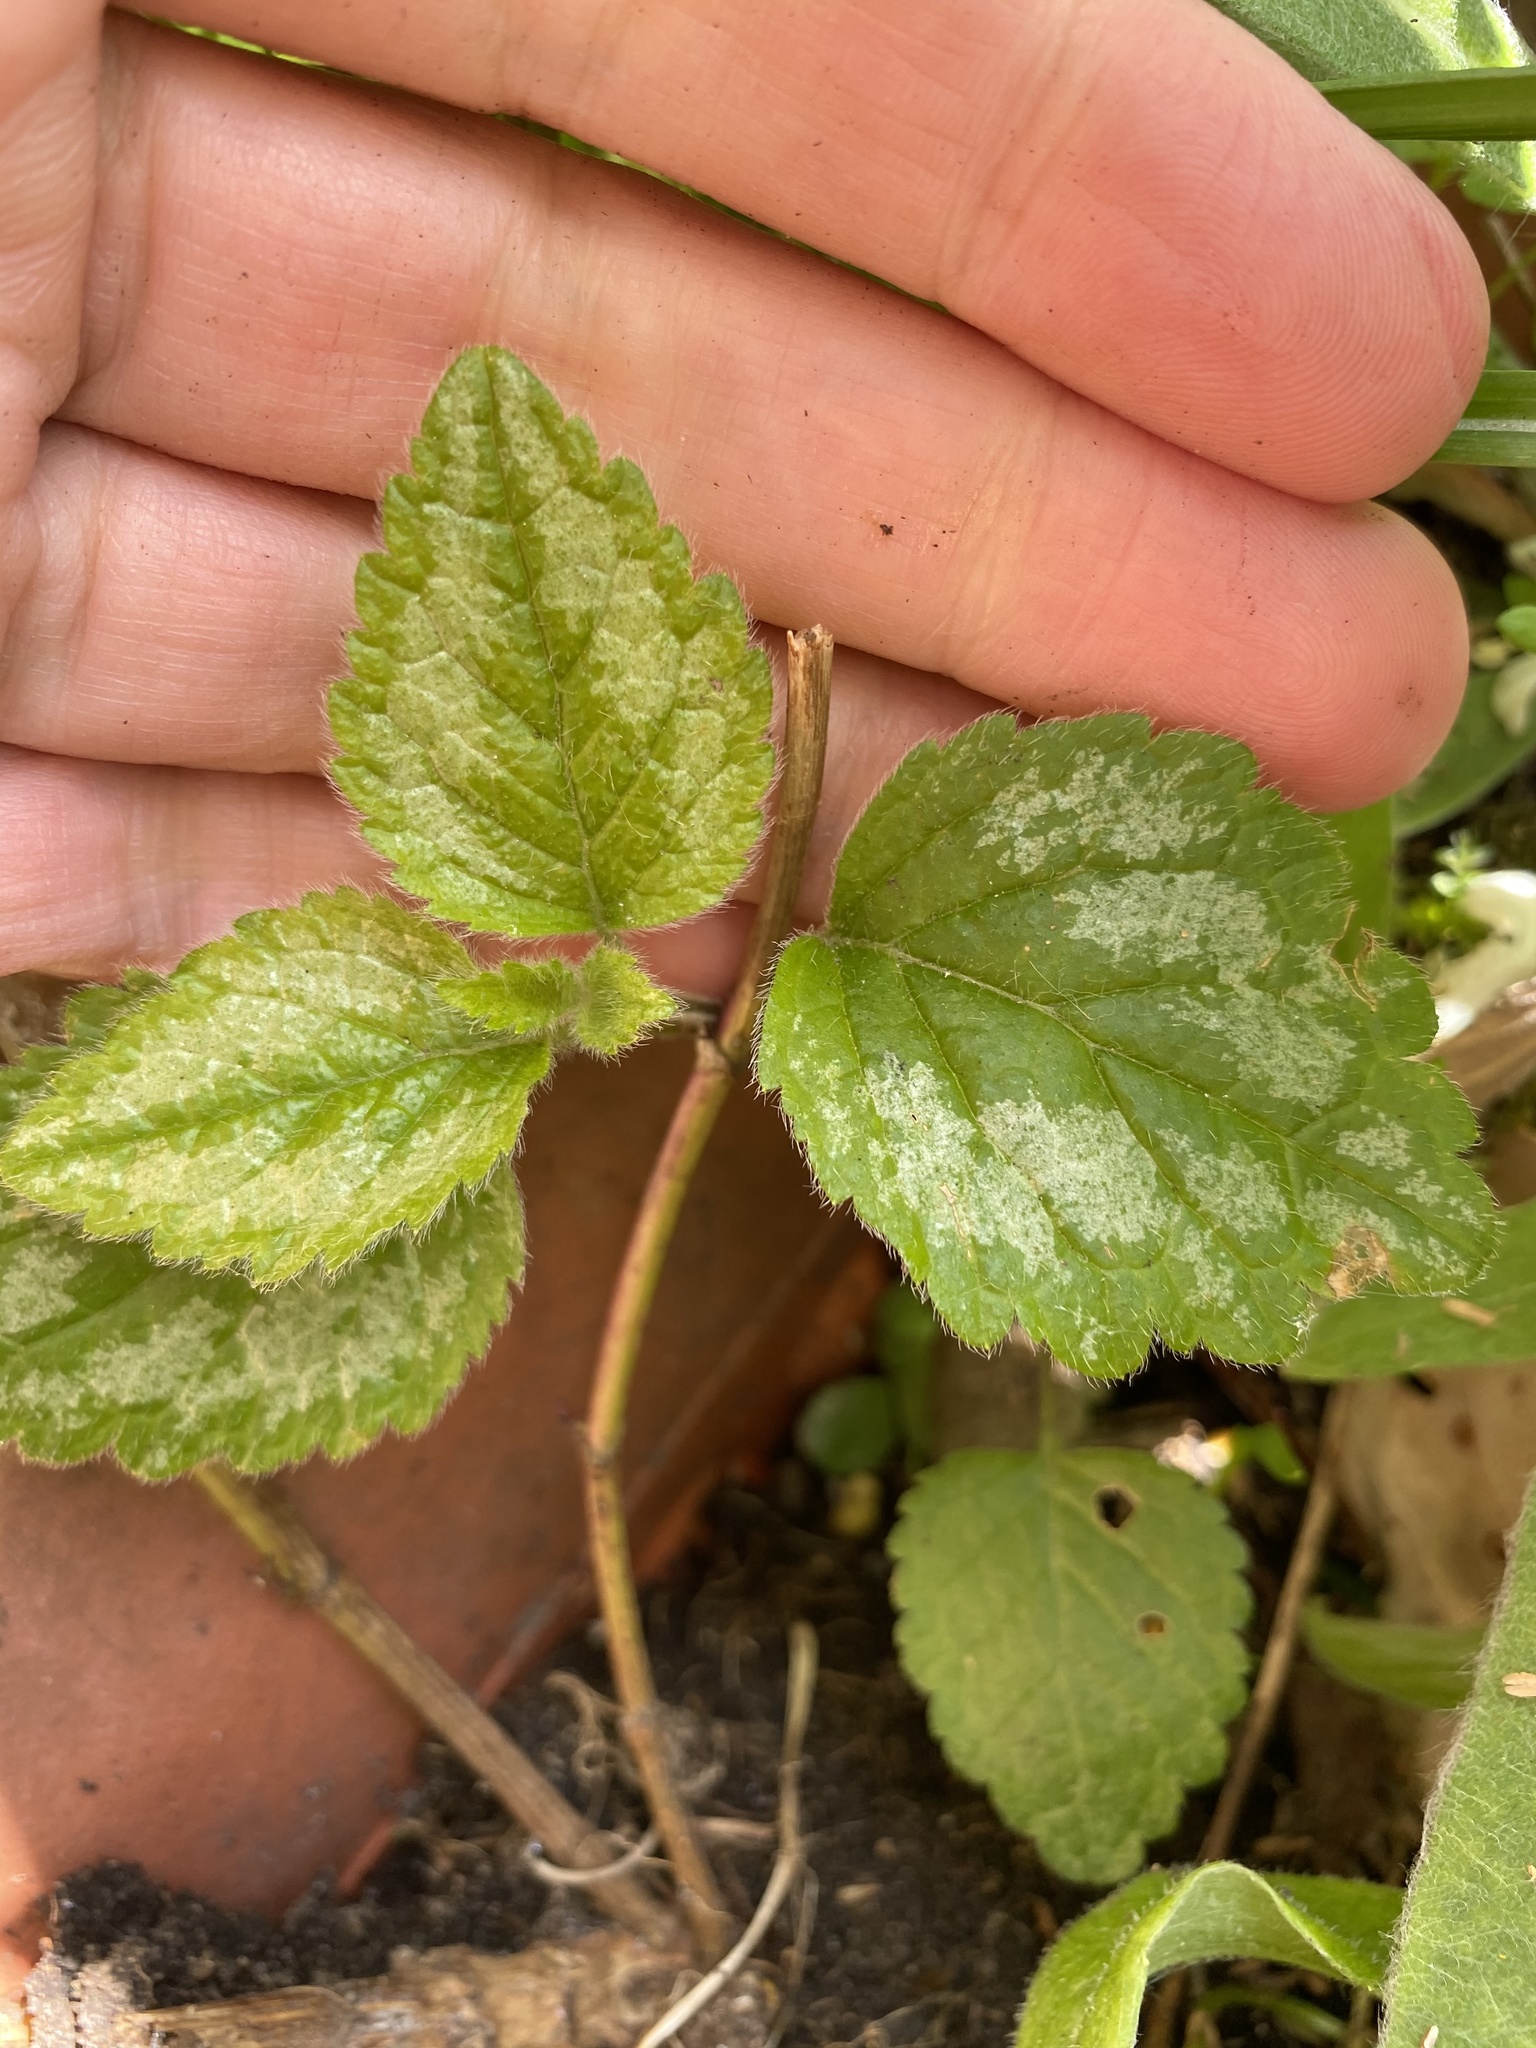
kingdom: Plantae
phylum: Tracheophyta
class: Magnoliopsida
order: Lamiales
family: Lamiaceae
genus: Lamium
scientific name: Lamium galeobdolon
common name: Yellow archangel
